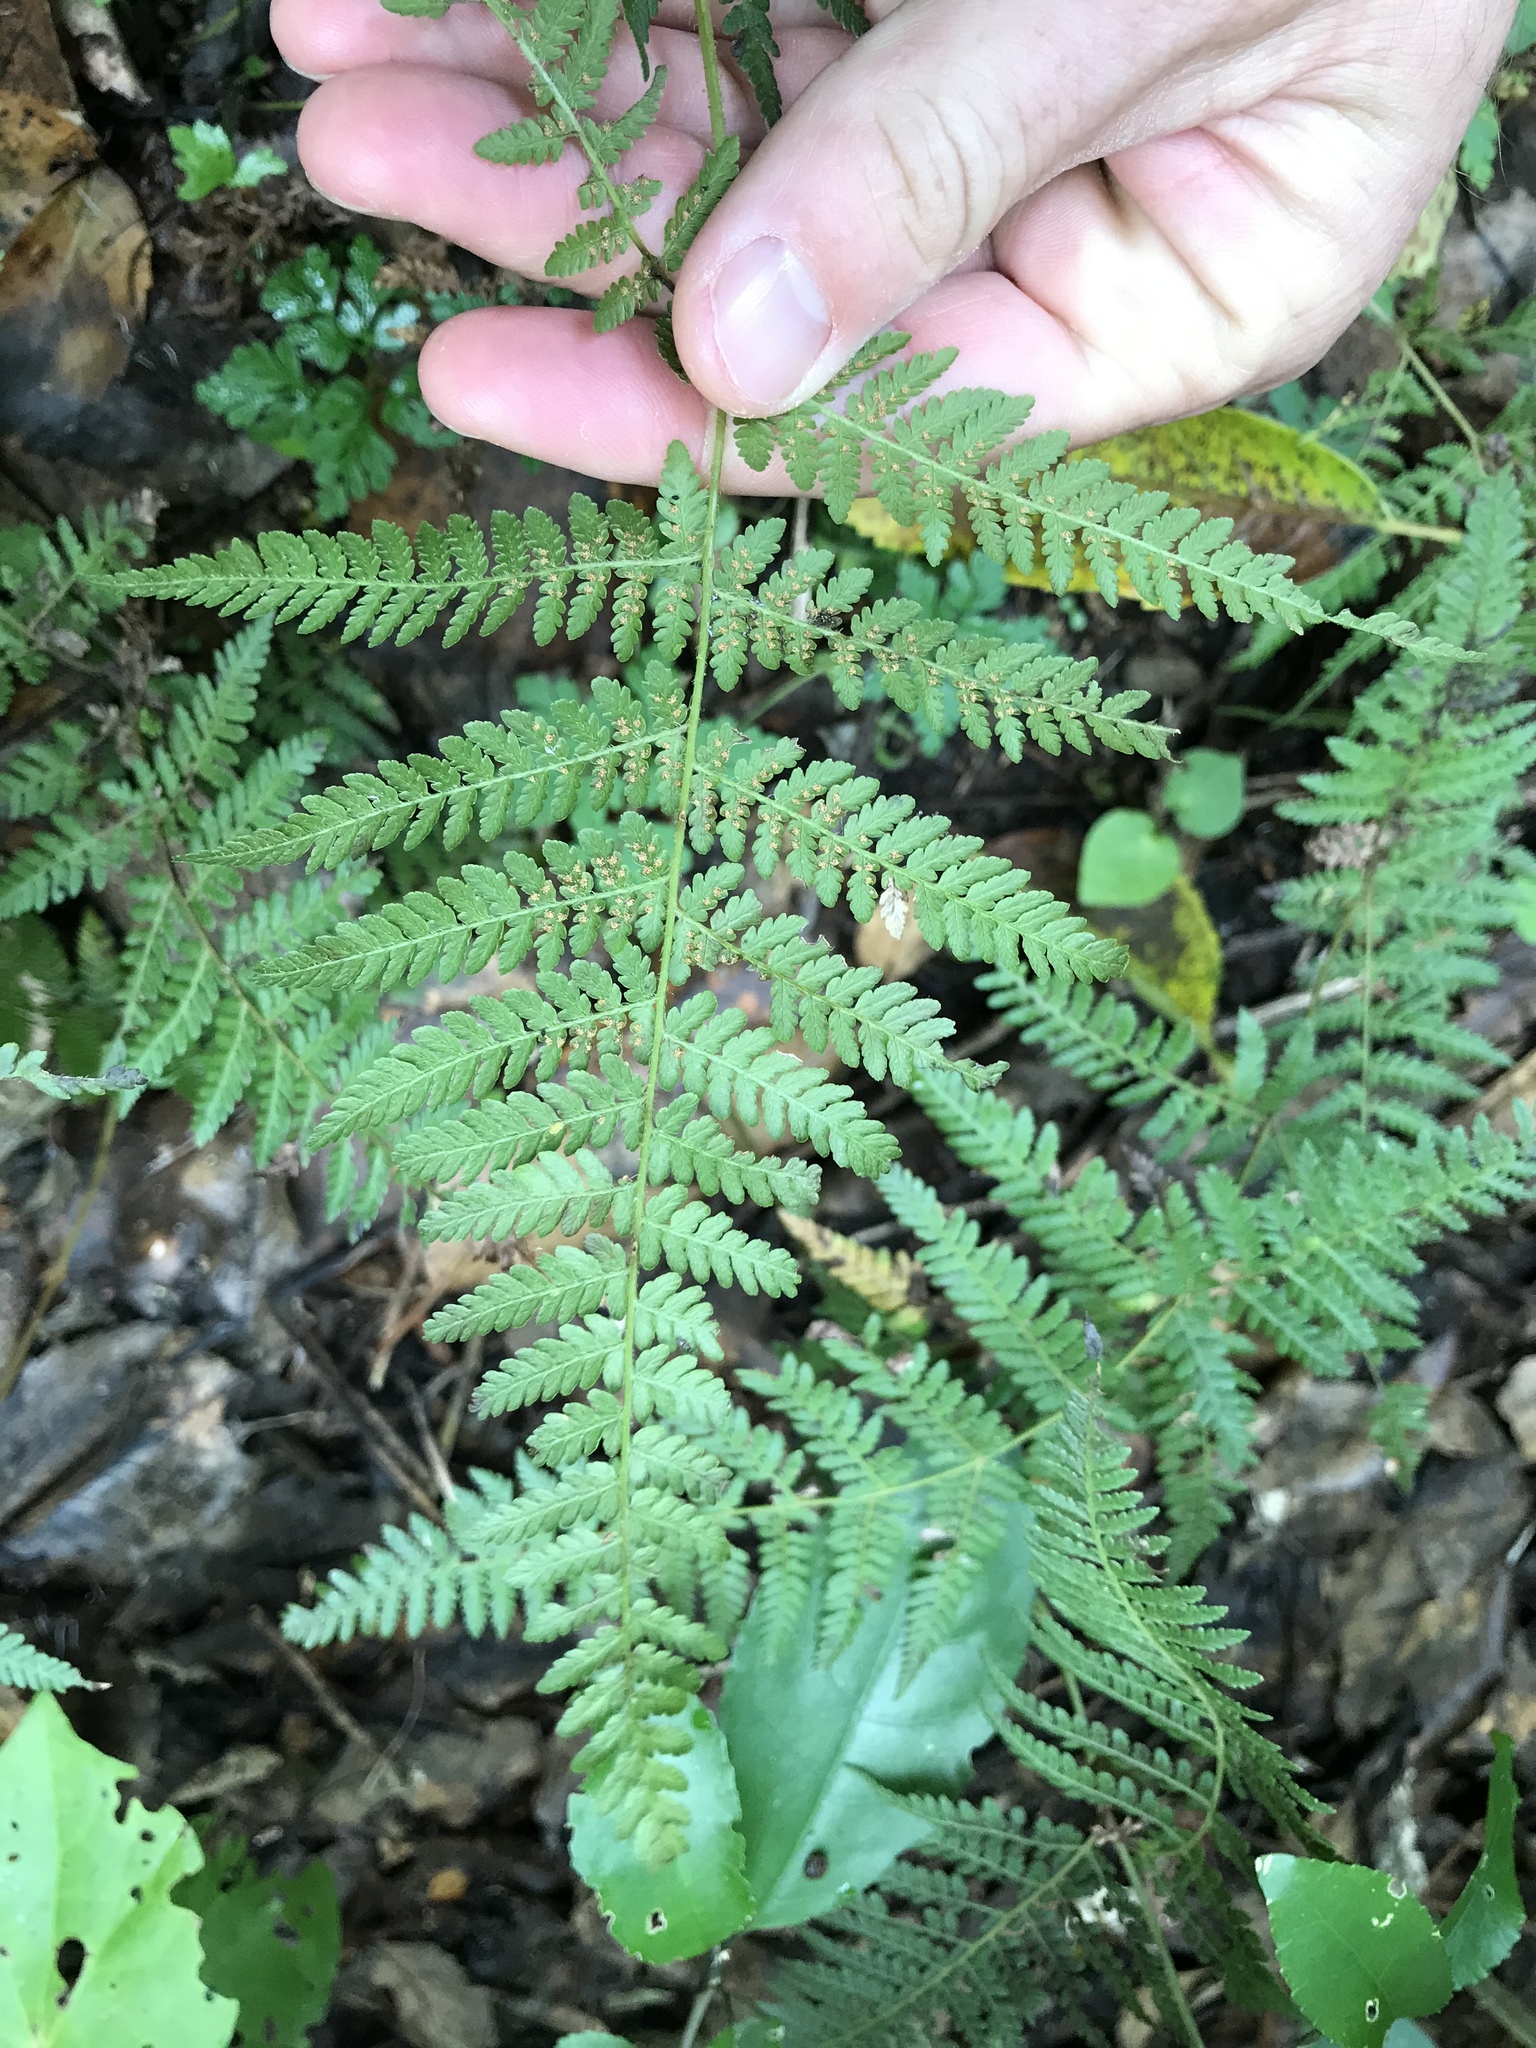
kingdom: Plantae
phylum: Tracheophyta
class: Polypodiopsida
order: Polypodiales
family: Dennstaedtiaceae
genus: Hypolepis
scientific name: Hypolepis ambigua
